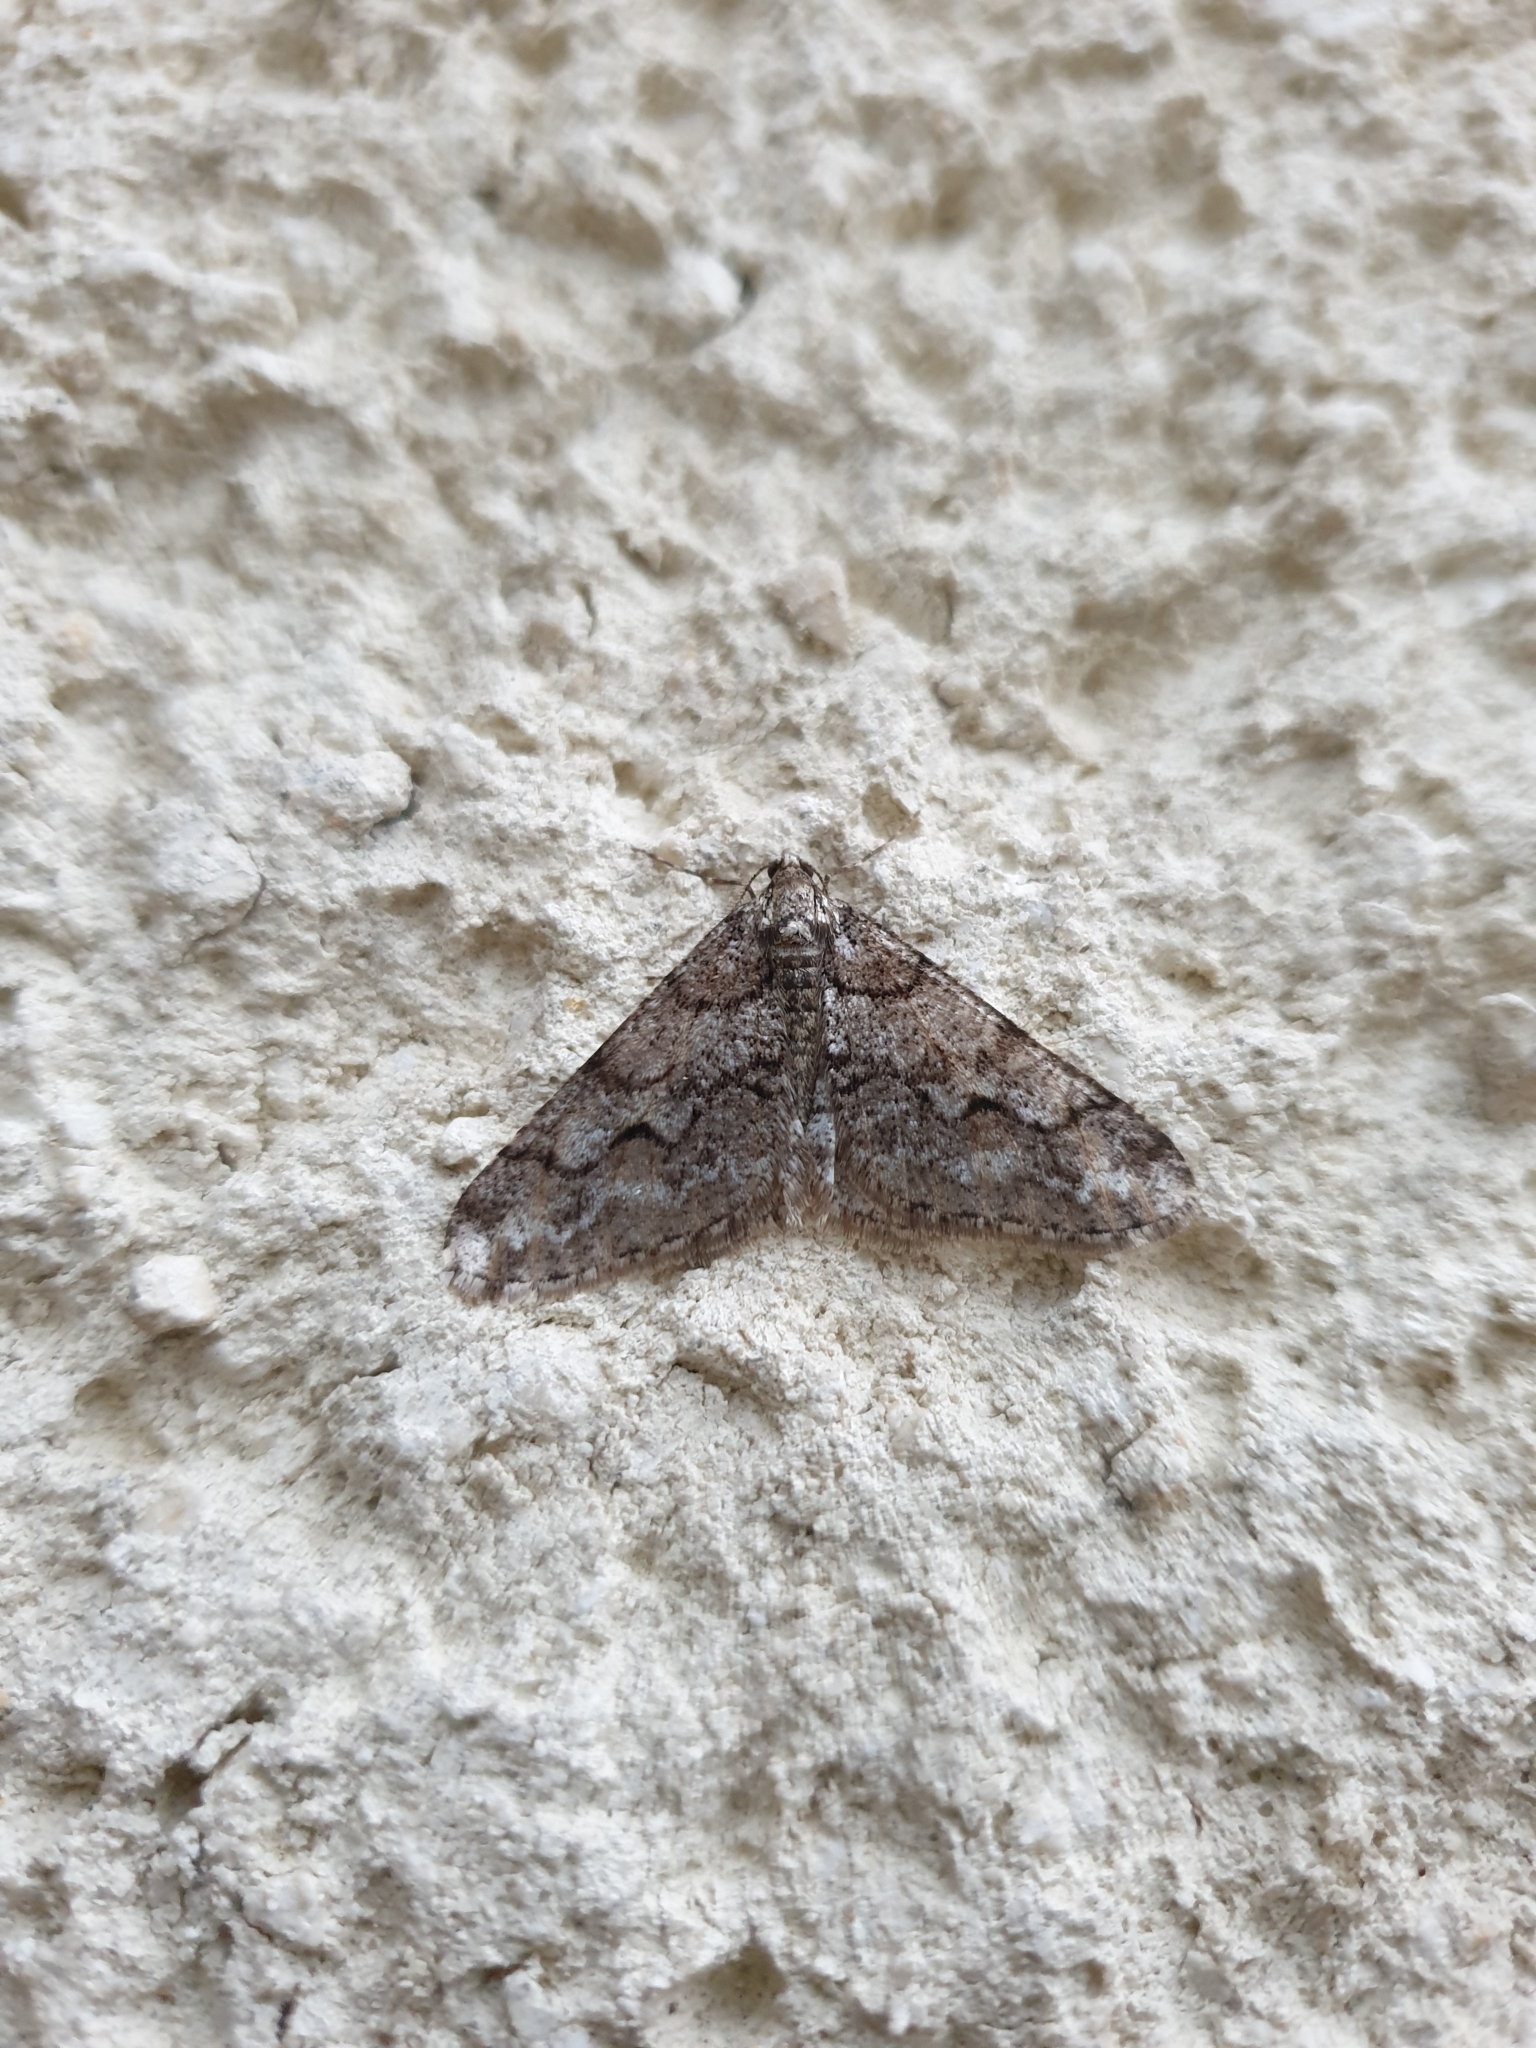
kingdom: Animalia
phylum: Arthropoda
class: Insecta
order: Lepidoptera
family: Geometridae
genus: Agriopis
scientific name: Agriopis leucophaearia
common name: Spring usher
